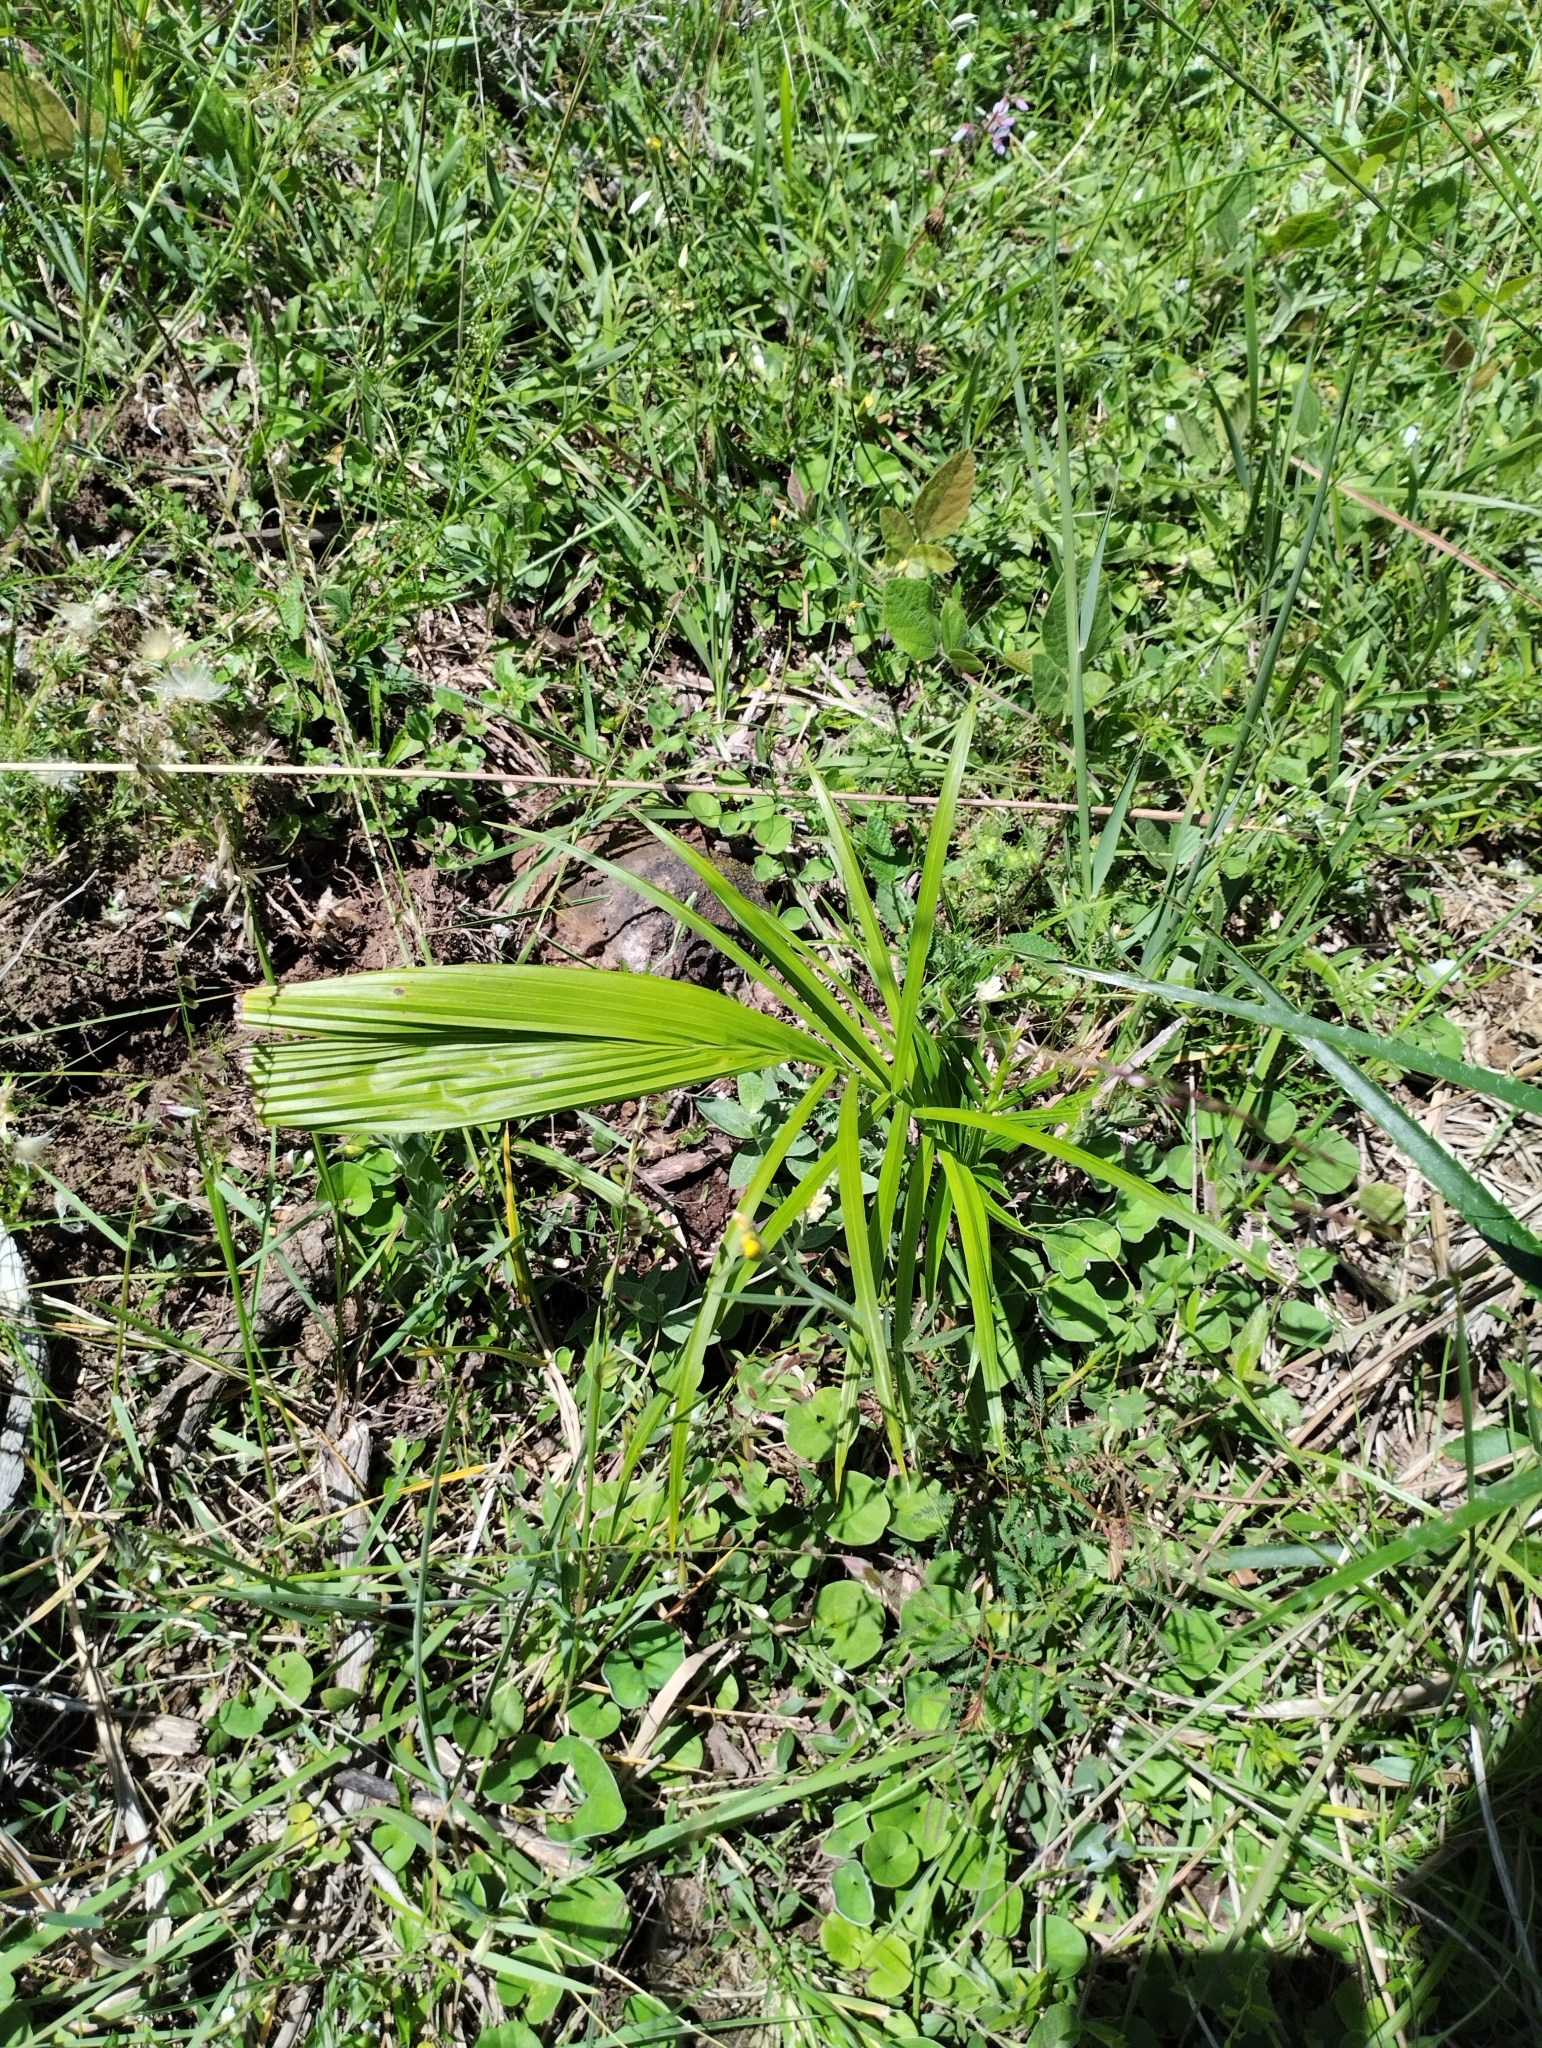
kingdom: Plantae
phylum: Tracheophyta
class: Liliopsida
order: Arecales
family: Arecaceae
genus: Syagrus
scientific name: Syagrus romanzoffiana
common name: Queen palm
